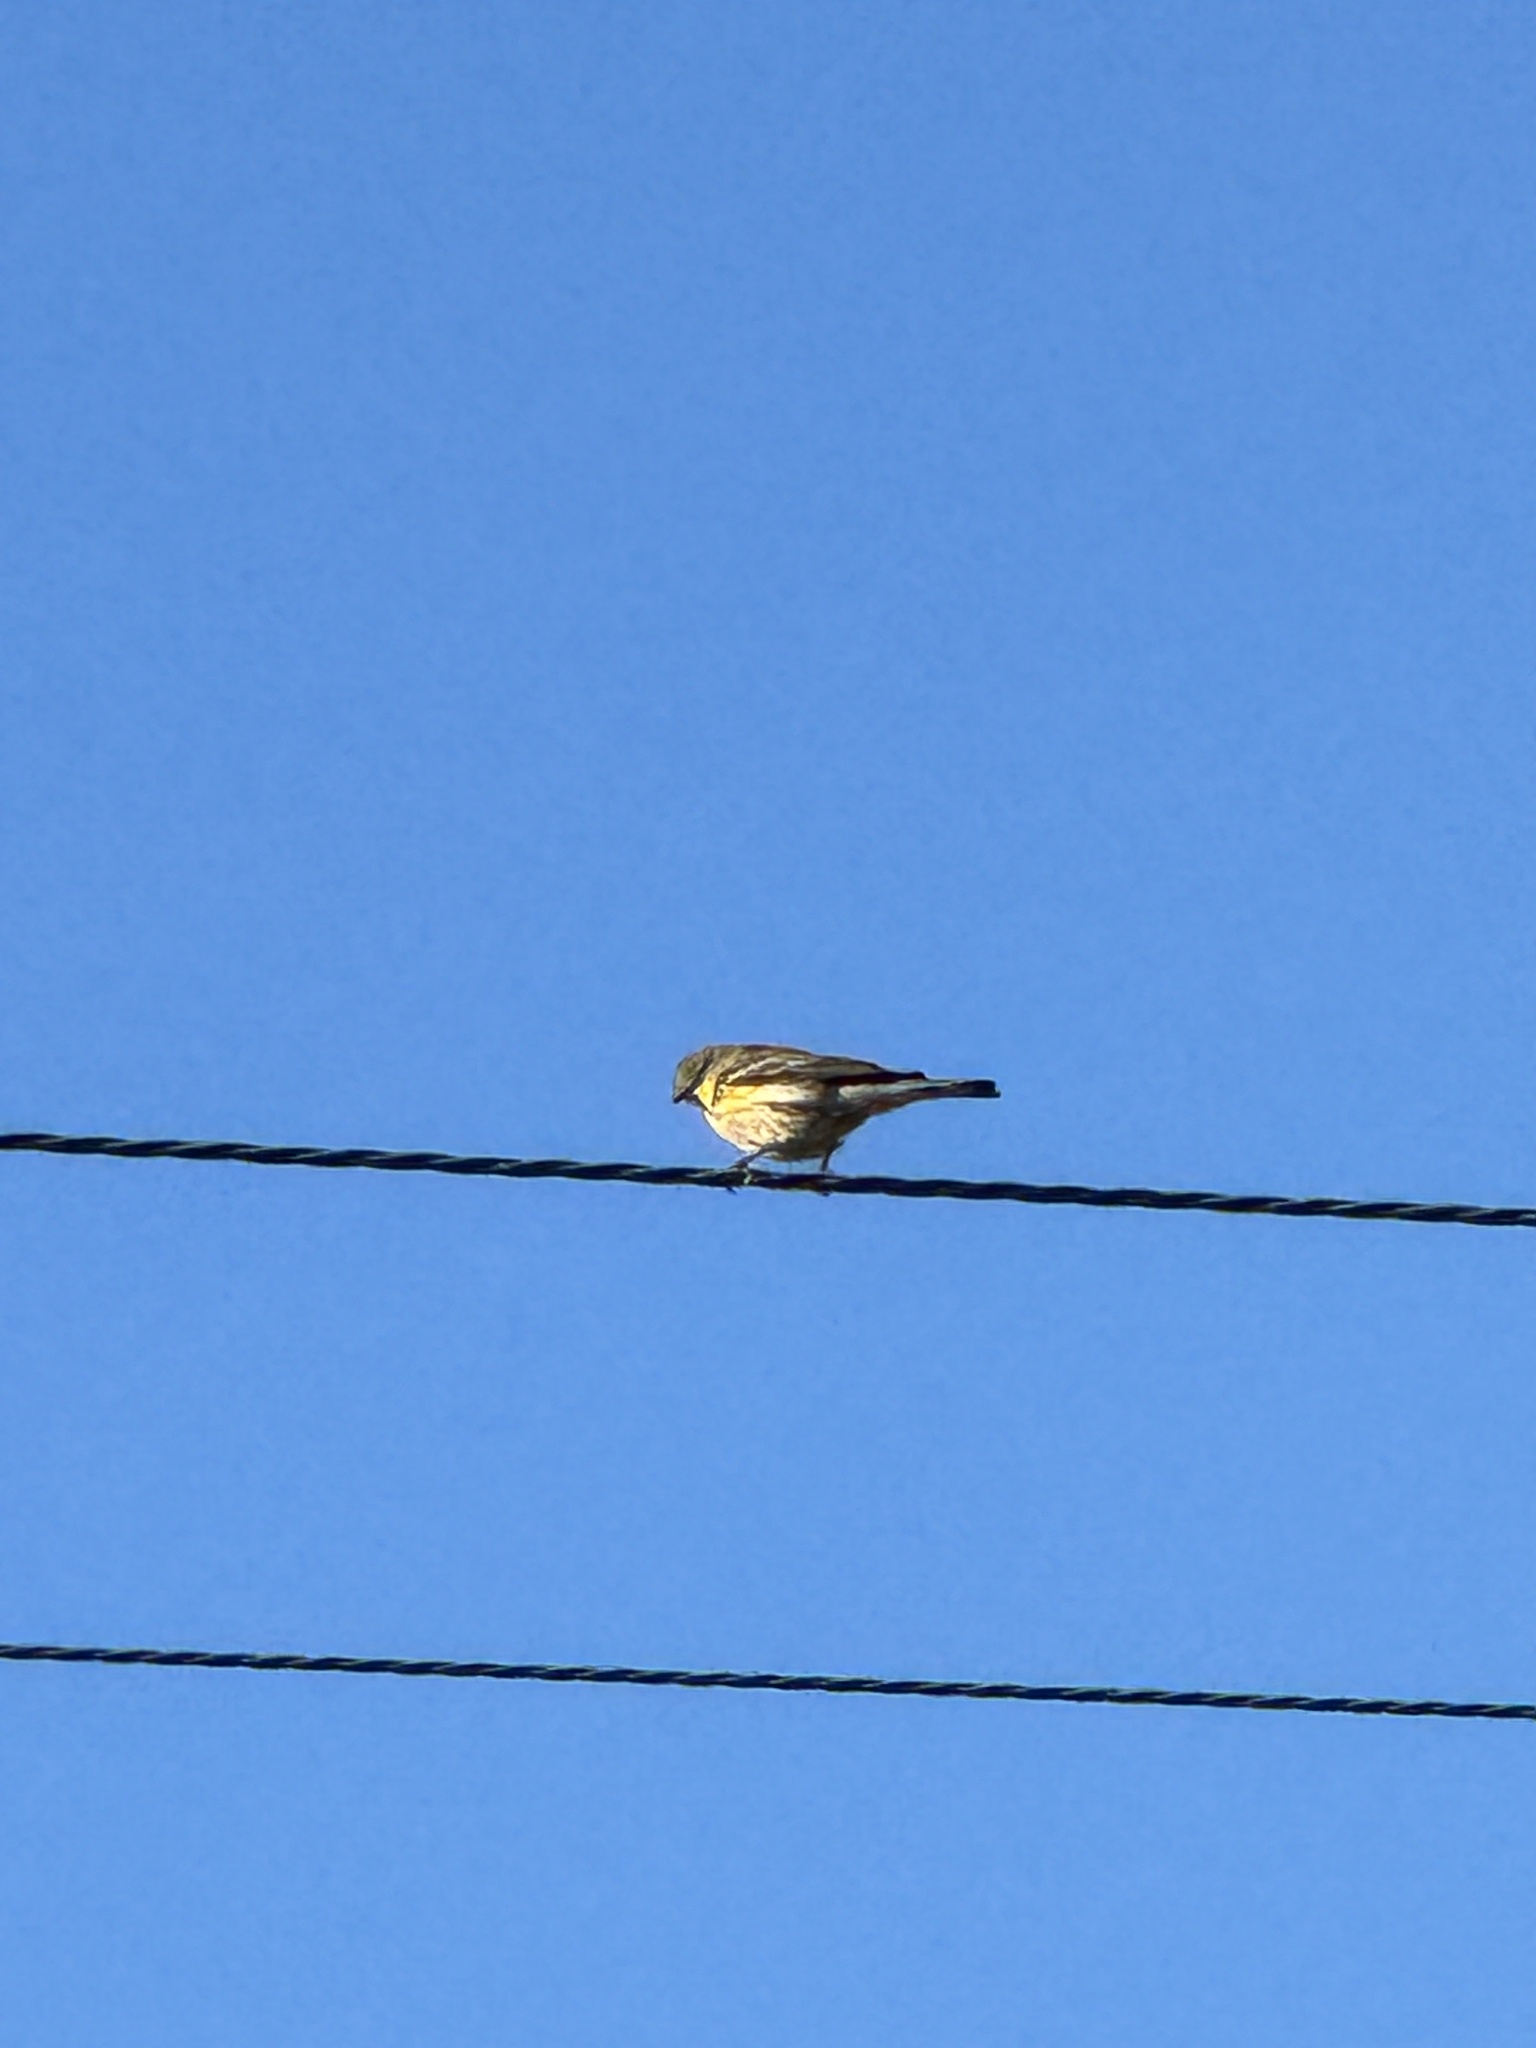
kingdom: Animalia
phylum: Chordata
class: Aves
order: Passeriformes
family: Parulidae
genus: Setophaga
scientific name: Setophaga coronata
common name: Myrtle warbler
